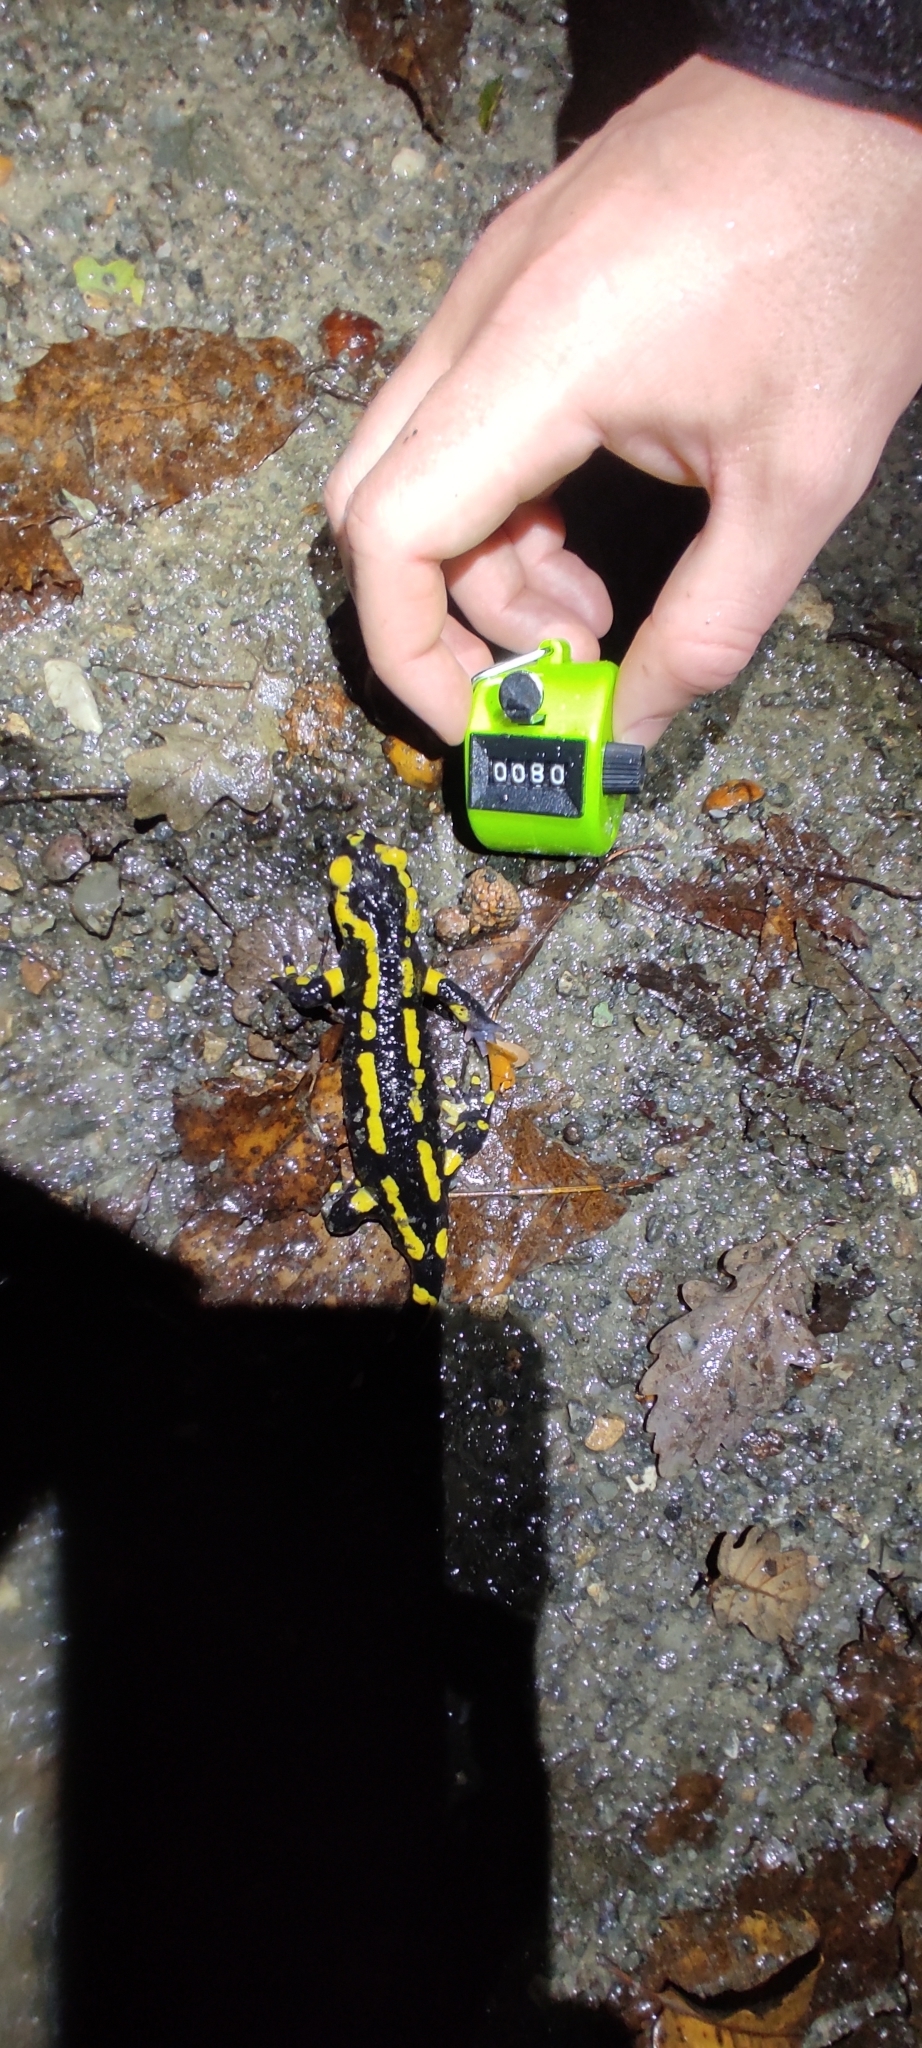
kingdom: Animalia
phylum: Chordata
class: Amphibia
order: Caudata
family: Salamandridae
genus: Salamandra
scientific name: Salamandra salamandra
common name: Fire salamander
